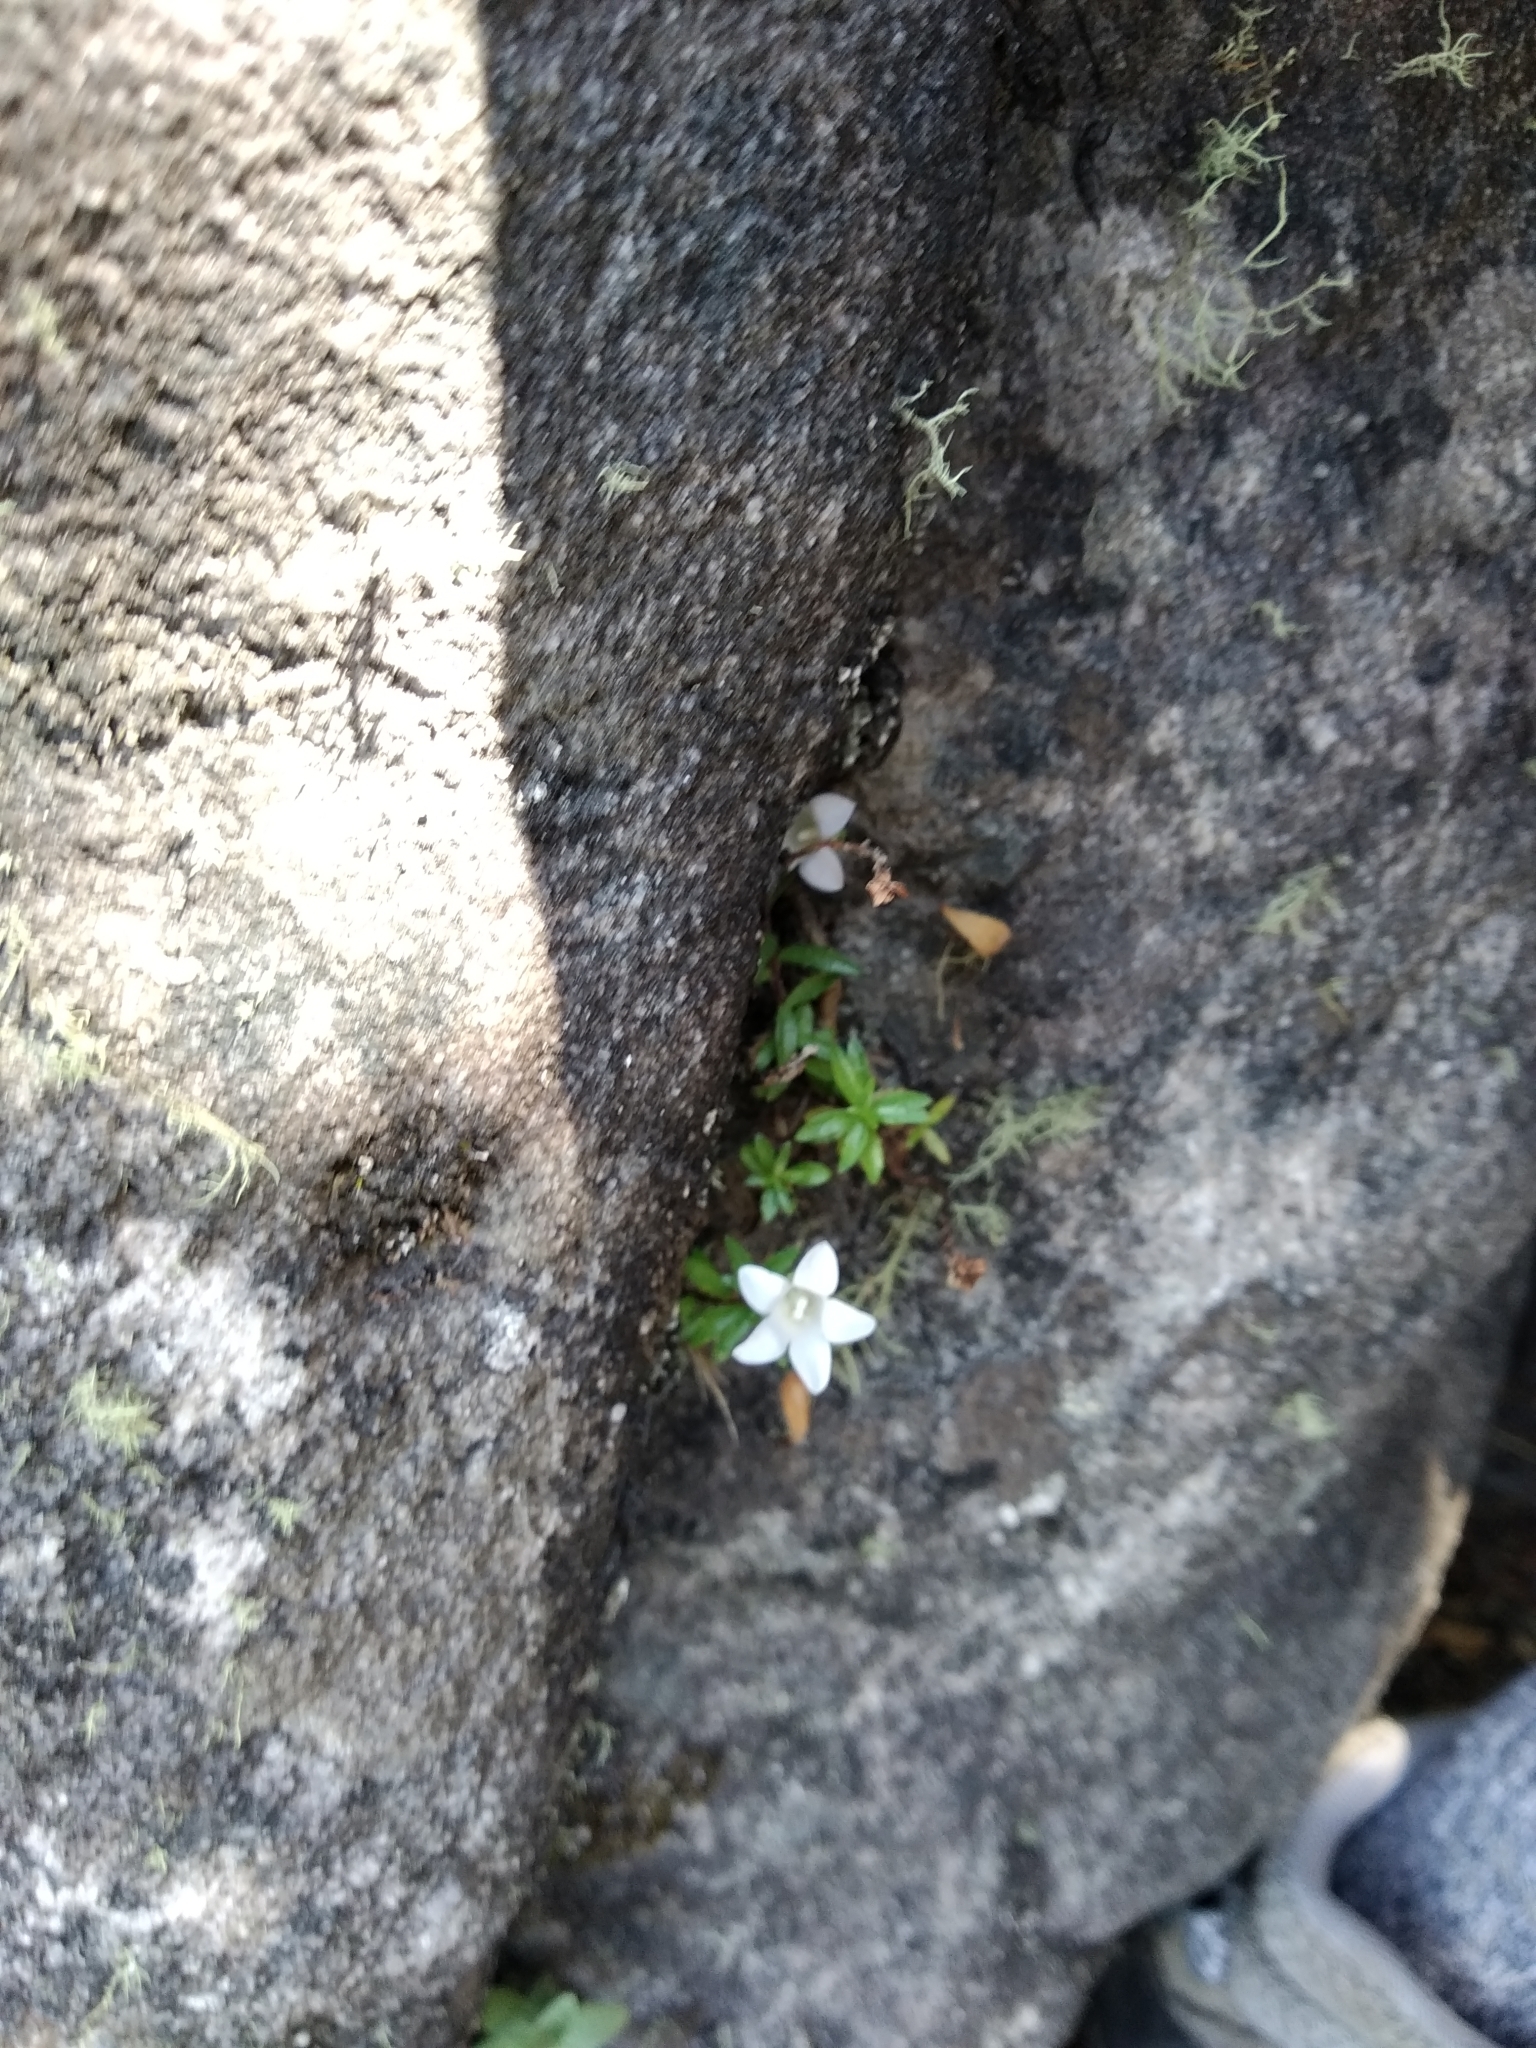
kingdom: Plantae
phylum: Tracheophyta
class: Magnoliopsida
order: Asterales
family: Campanulaceae
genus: Prismatocarpus
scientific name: Prismatocarpus nitidus
